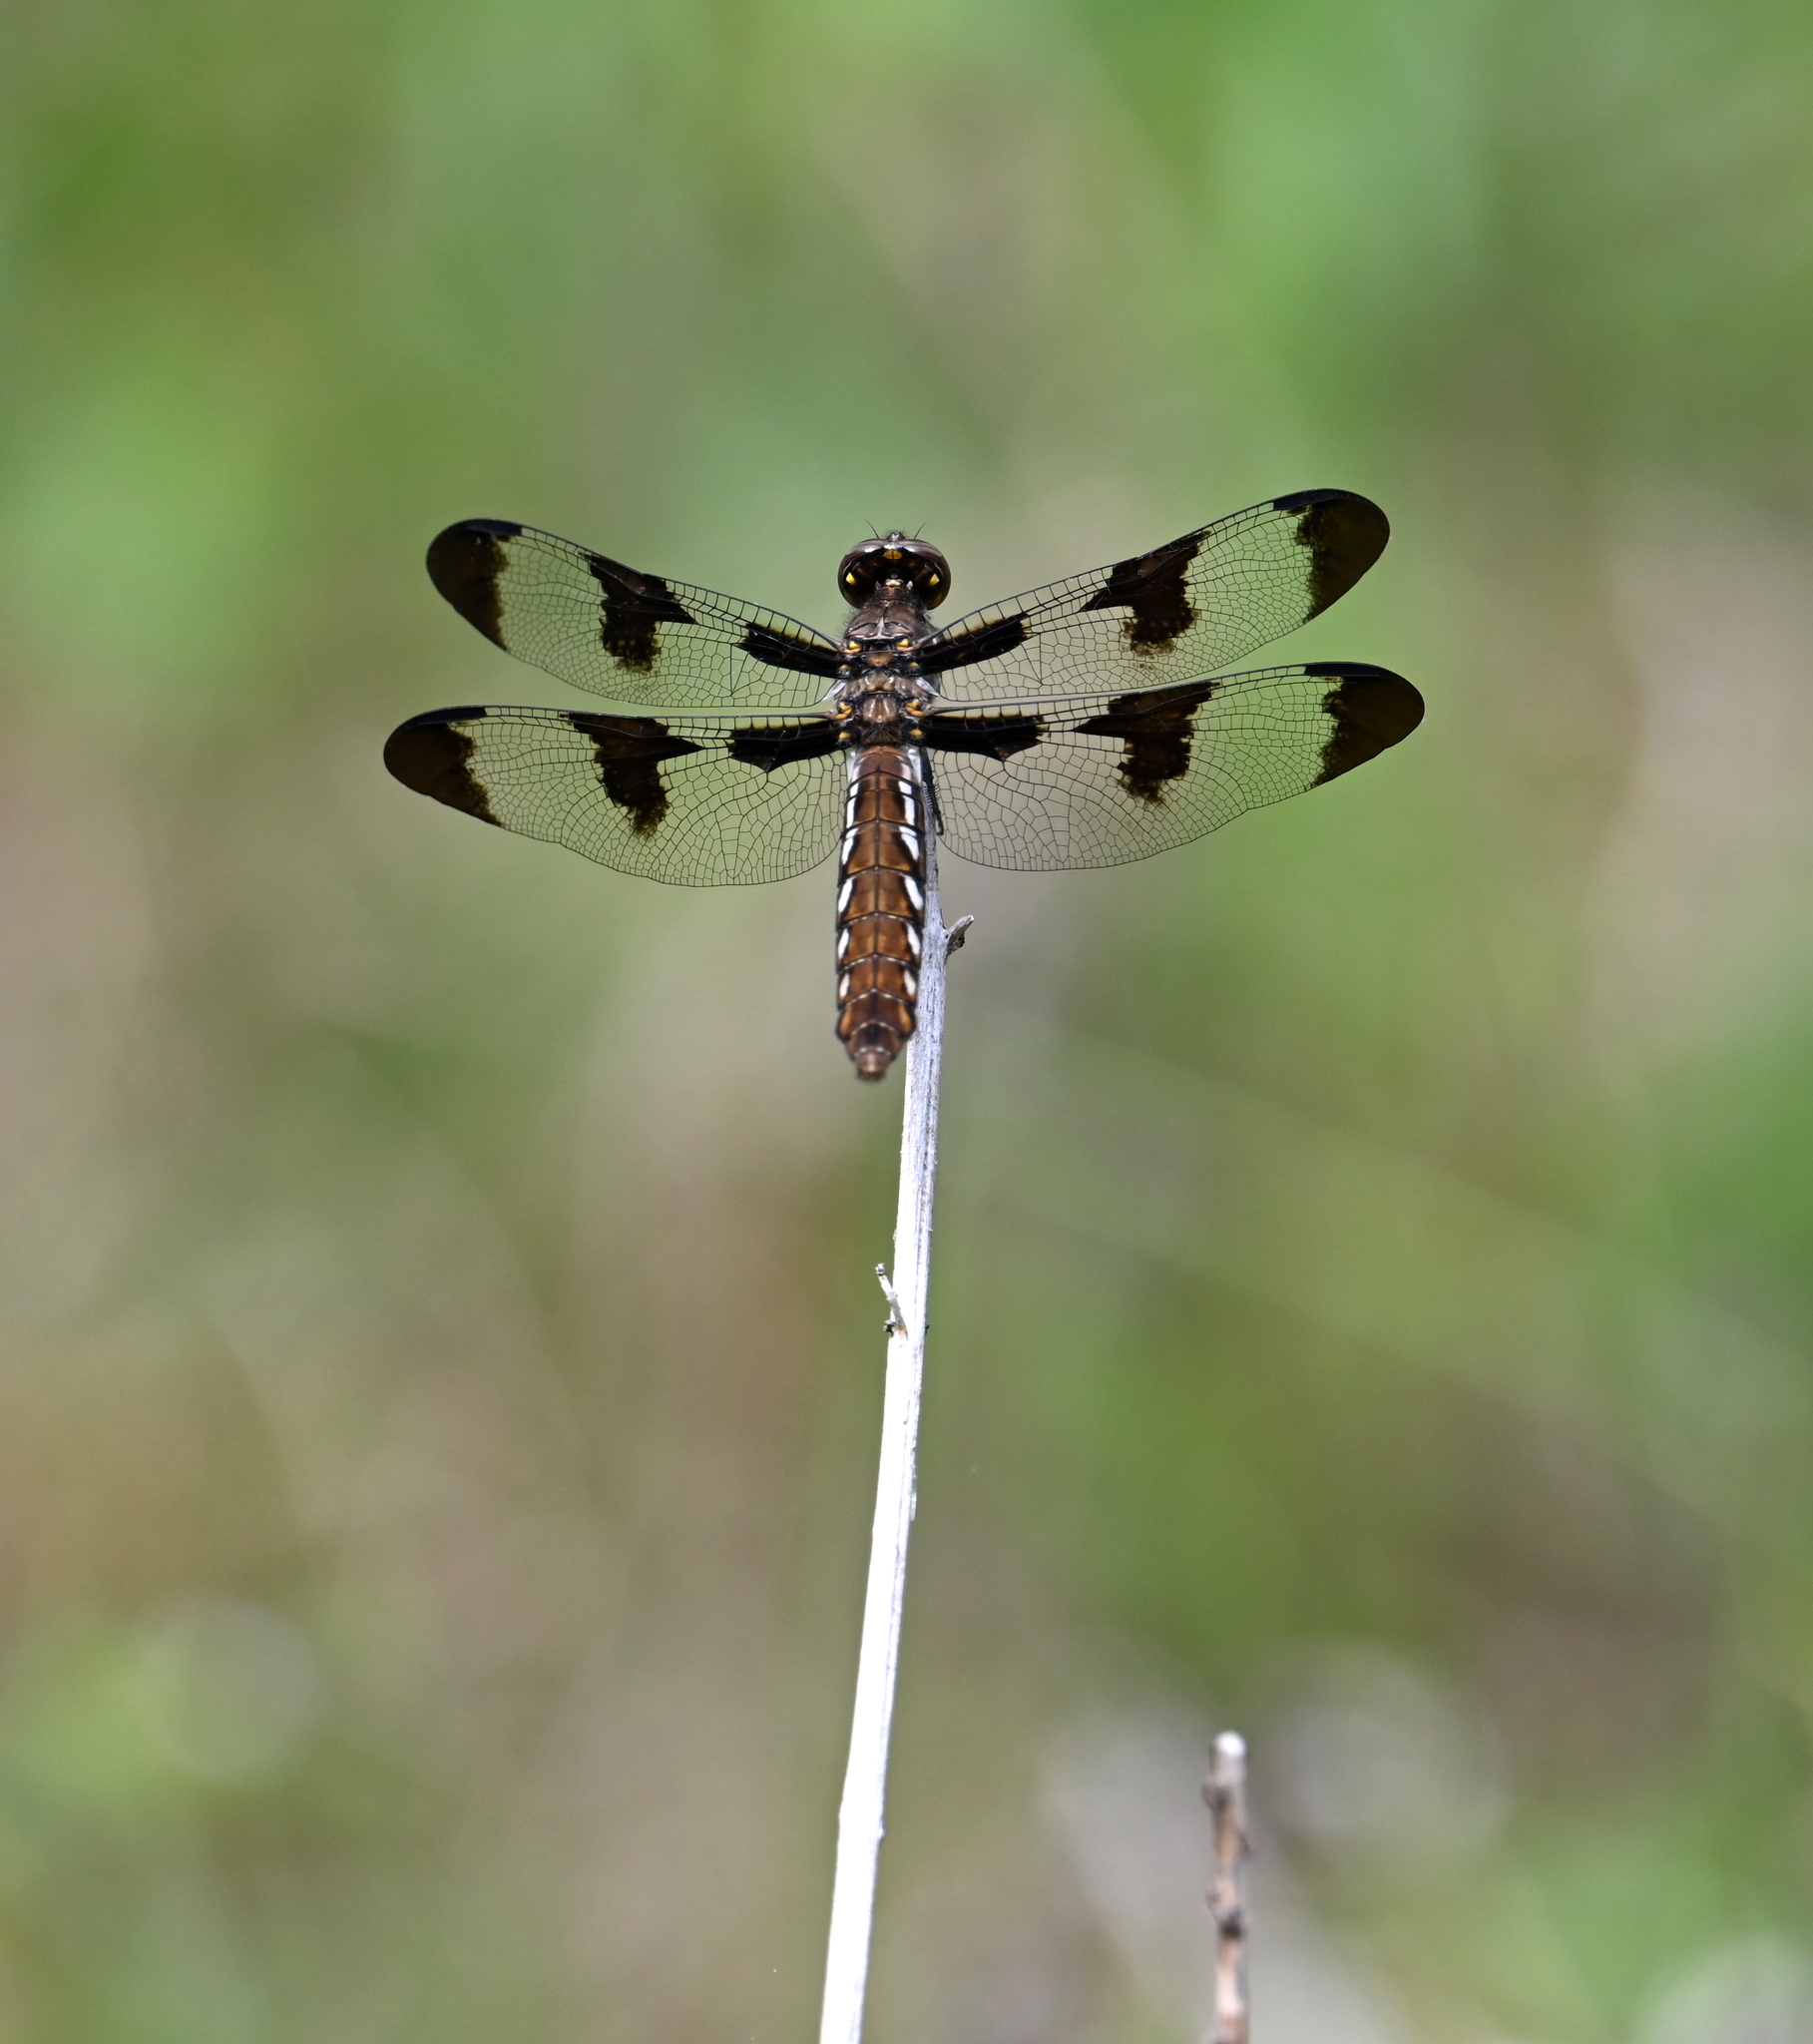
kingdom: Animalia
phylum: Arthropoda
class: Insecta
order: Odonata
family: Libellulidae
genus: Plathemis
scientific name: Plathemis lydia
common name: Common whitetail
